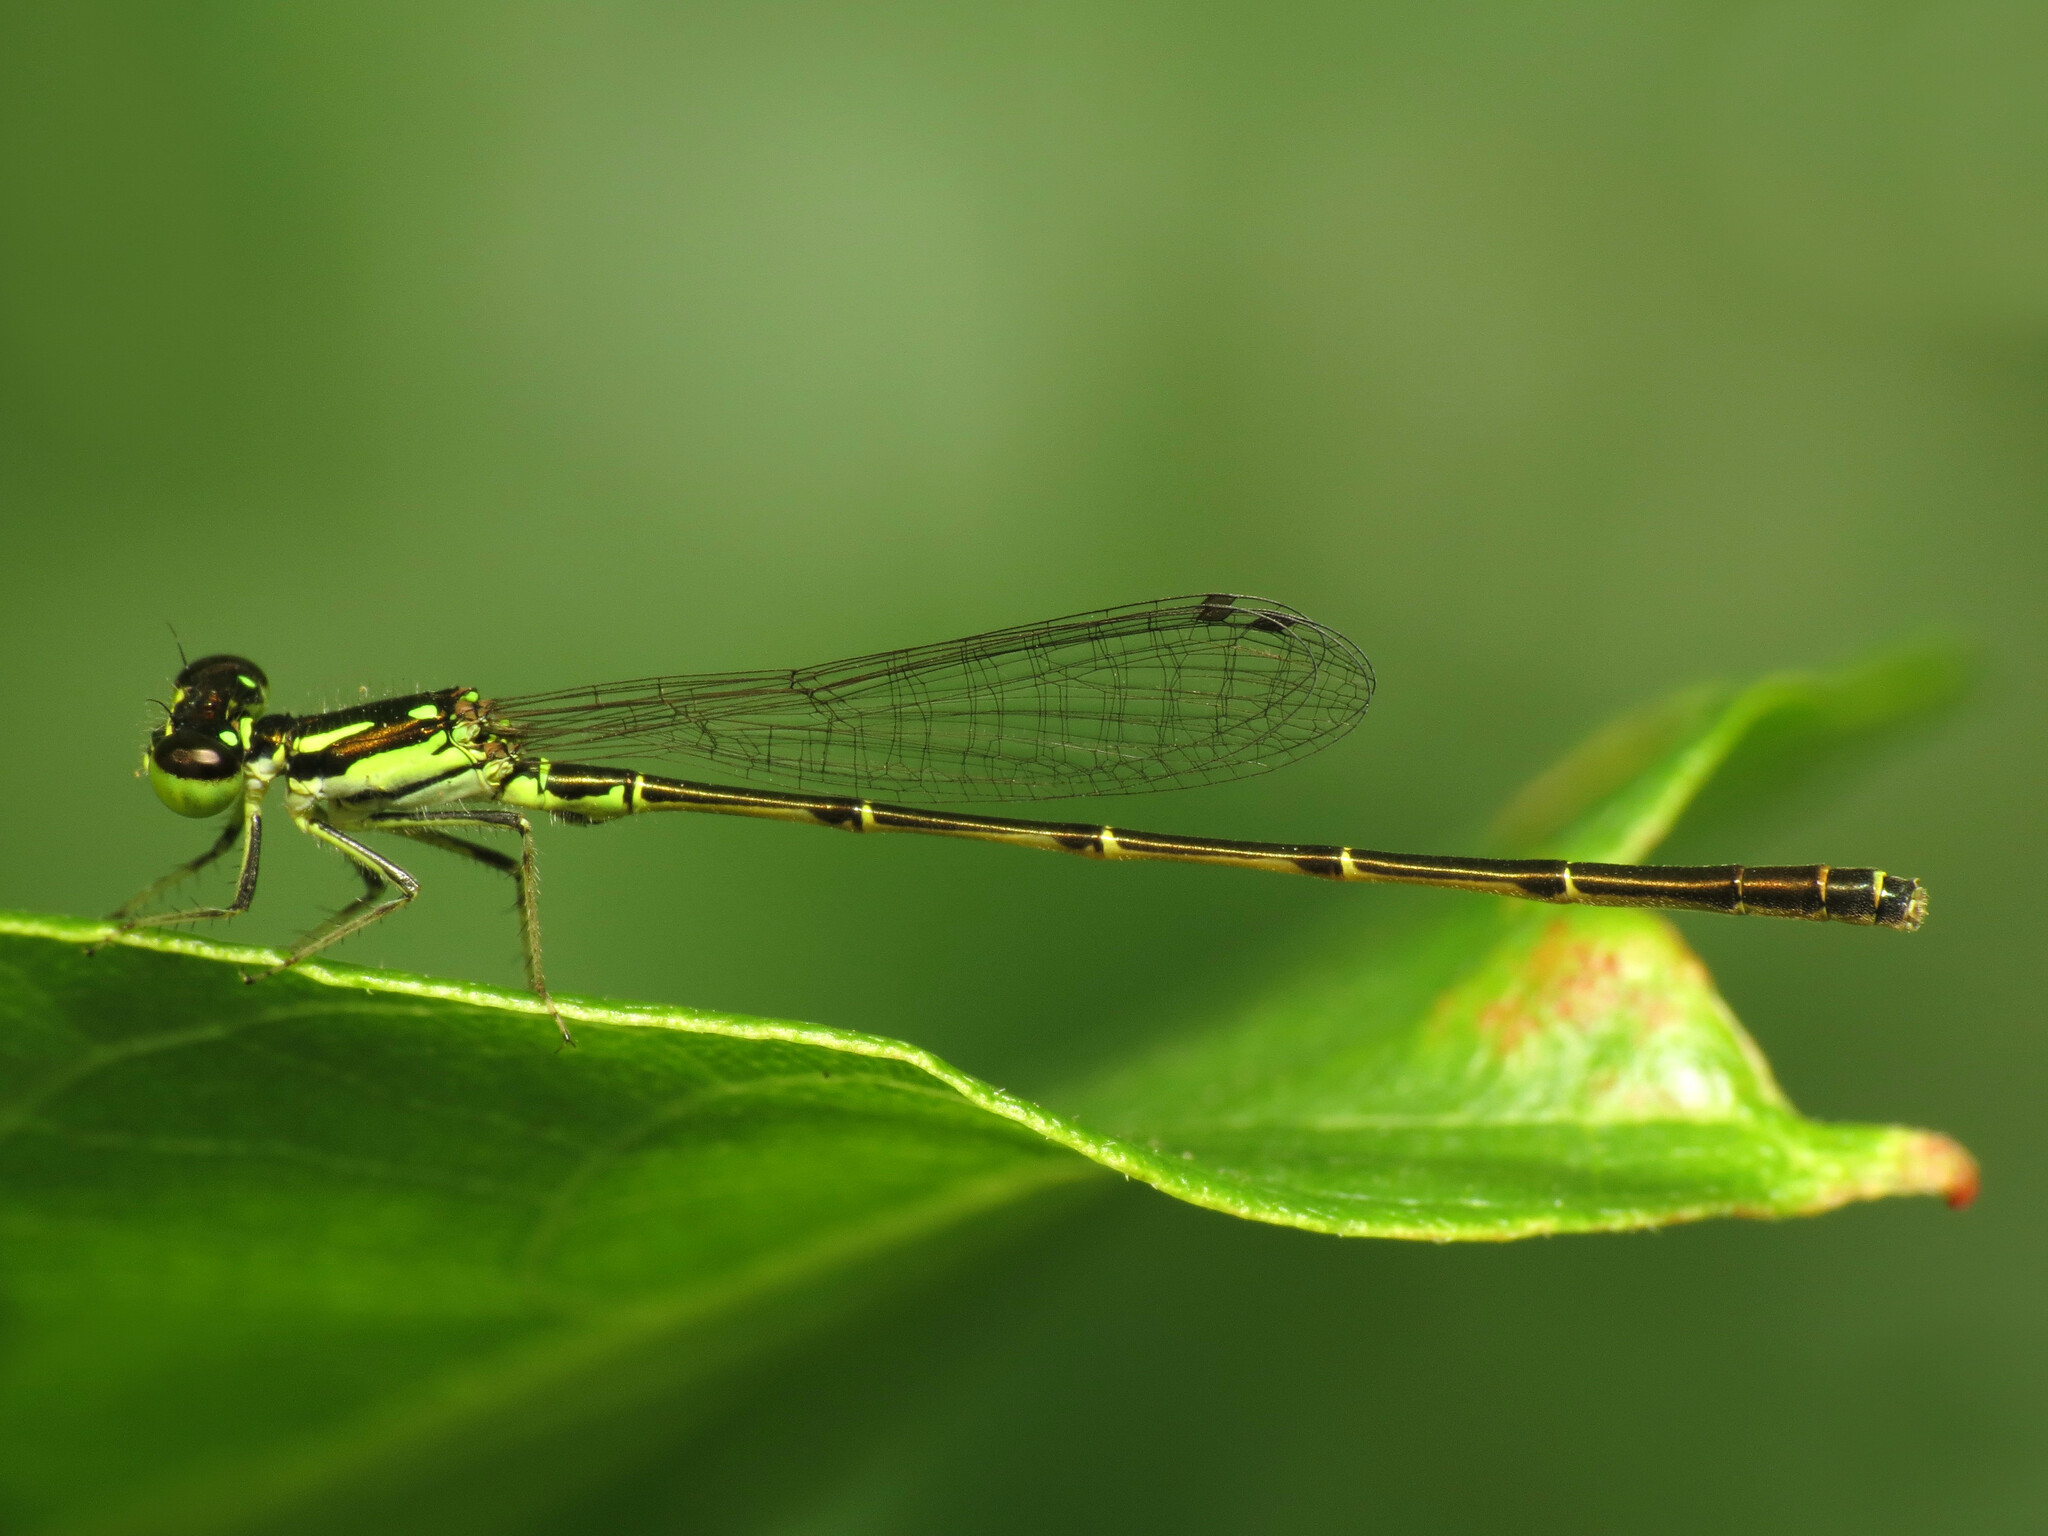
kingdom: Animalia
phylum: Arthropoda
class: Insecta
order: Odonata
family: Coenagrionidae
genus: Ischnura
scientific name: Ischnura posita
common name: Fragile forktail
